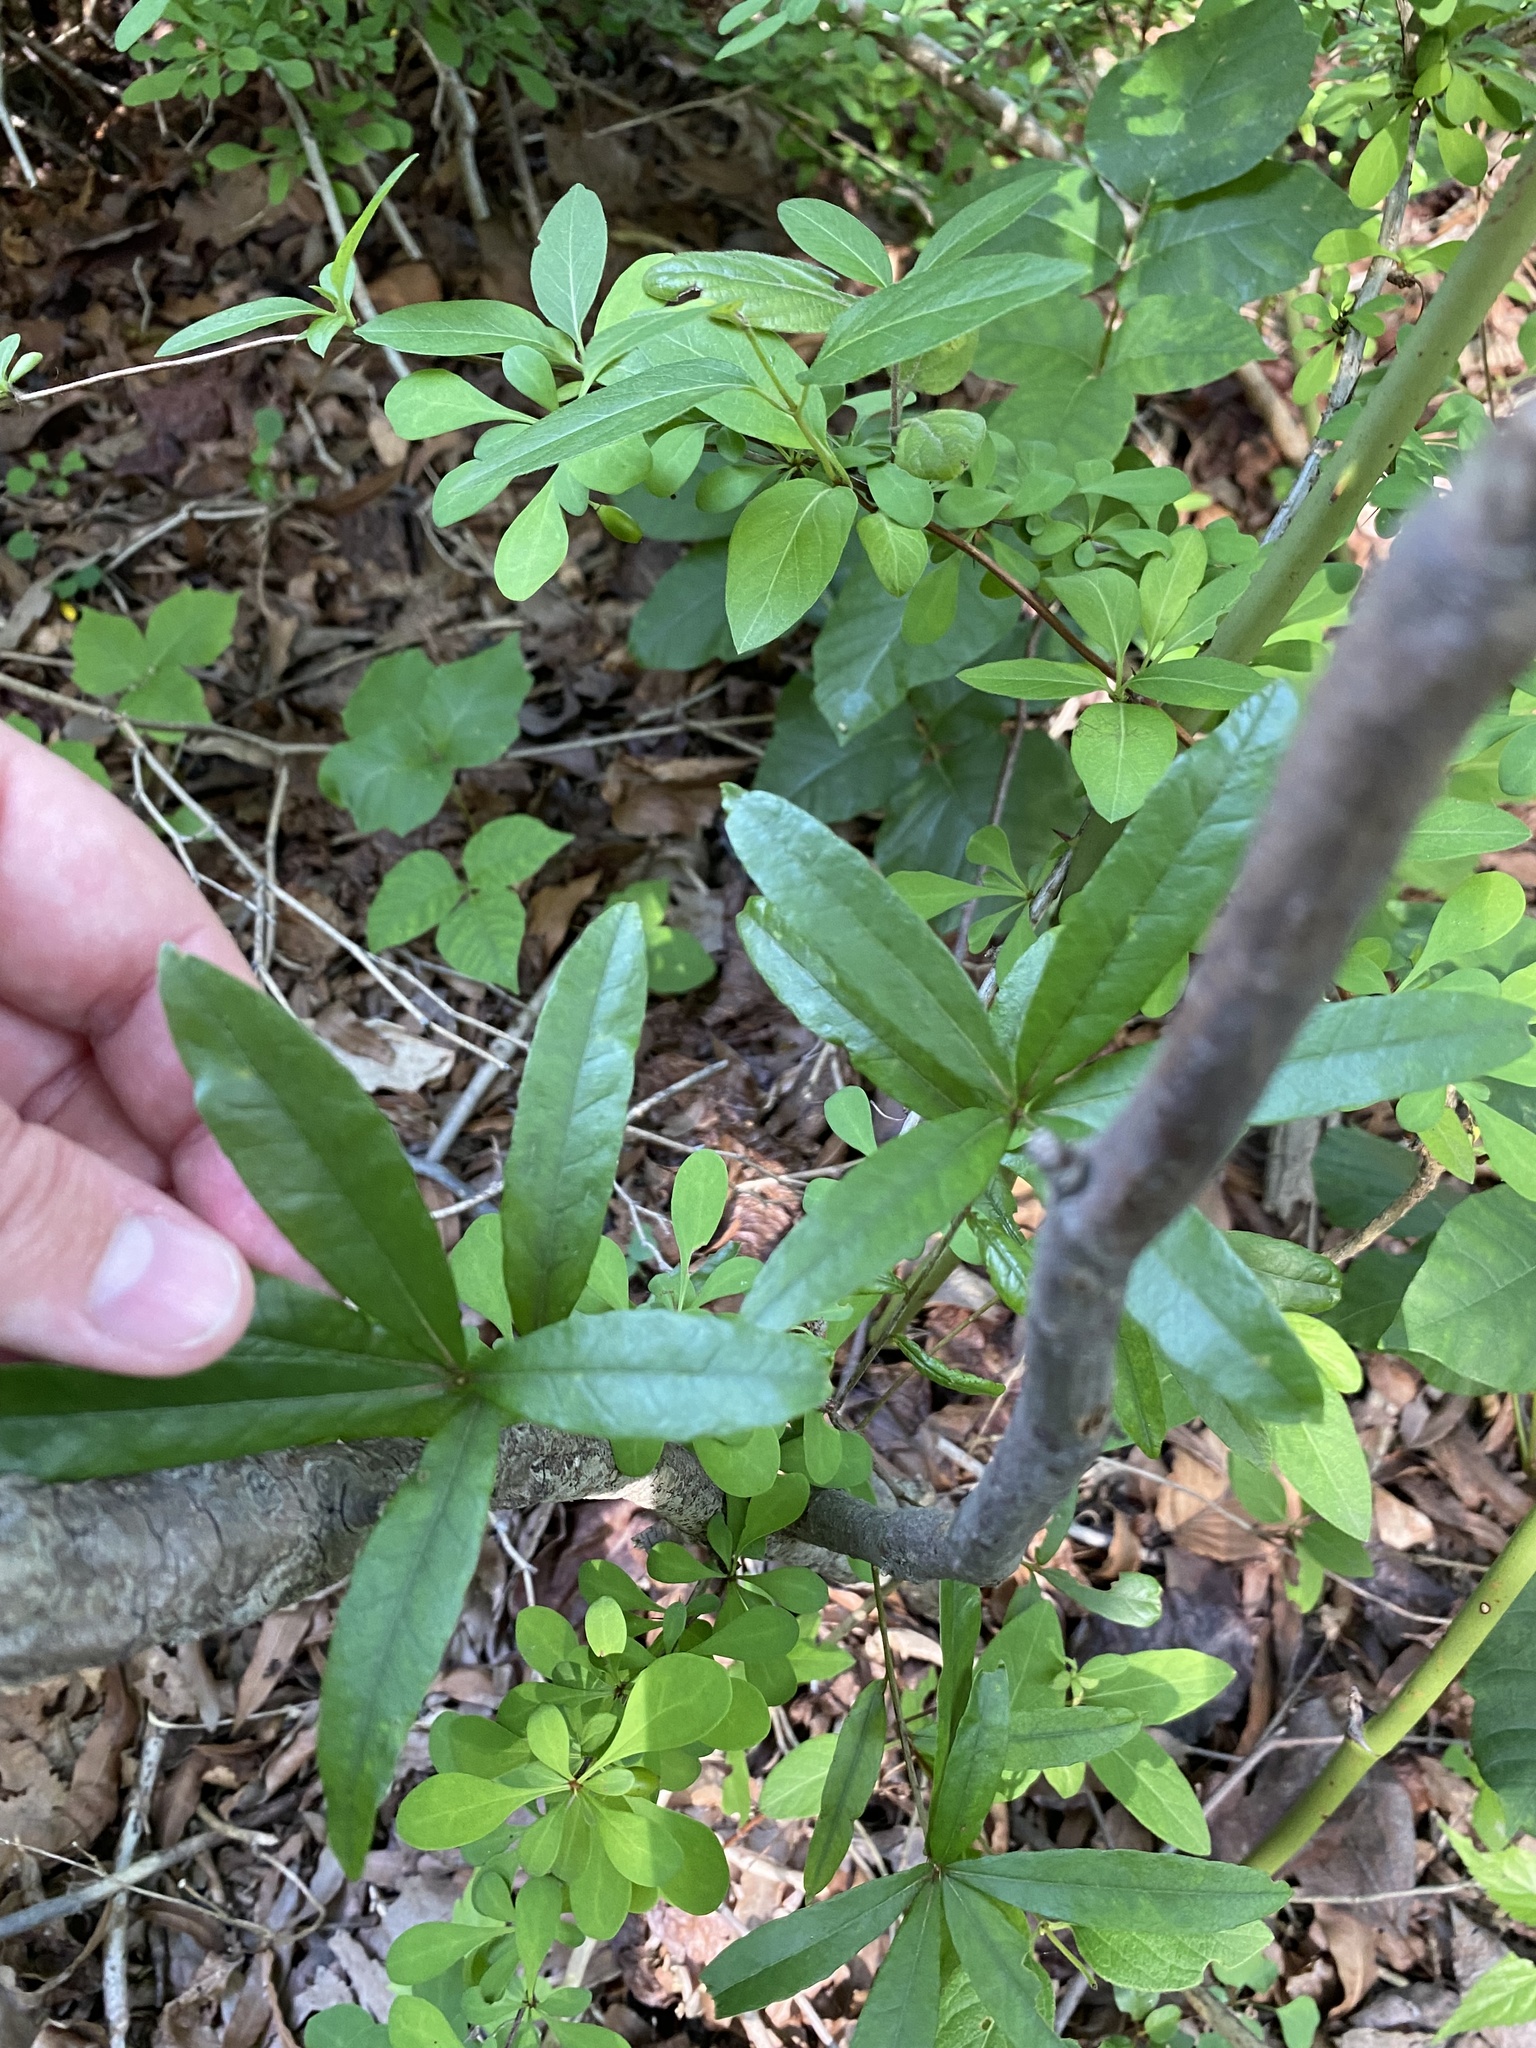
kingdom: Plantae
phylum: Tracheophyta
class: Magnoliopsida
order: Fagales
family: Fagaceae
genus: Quercus
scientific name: Quercus phellos
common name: Willow oak
